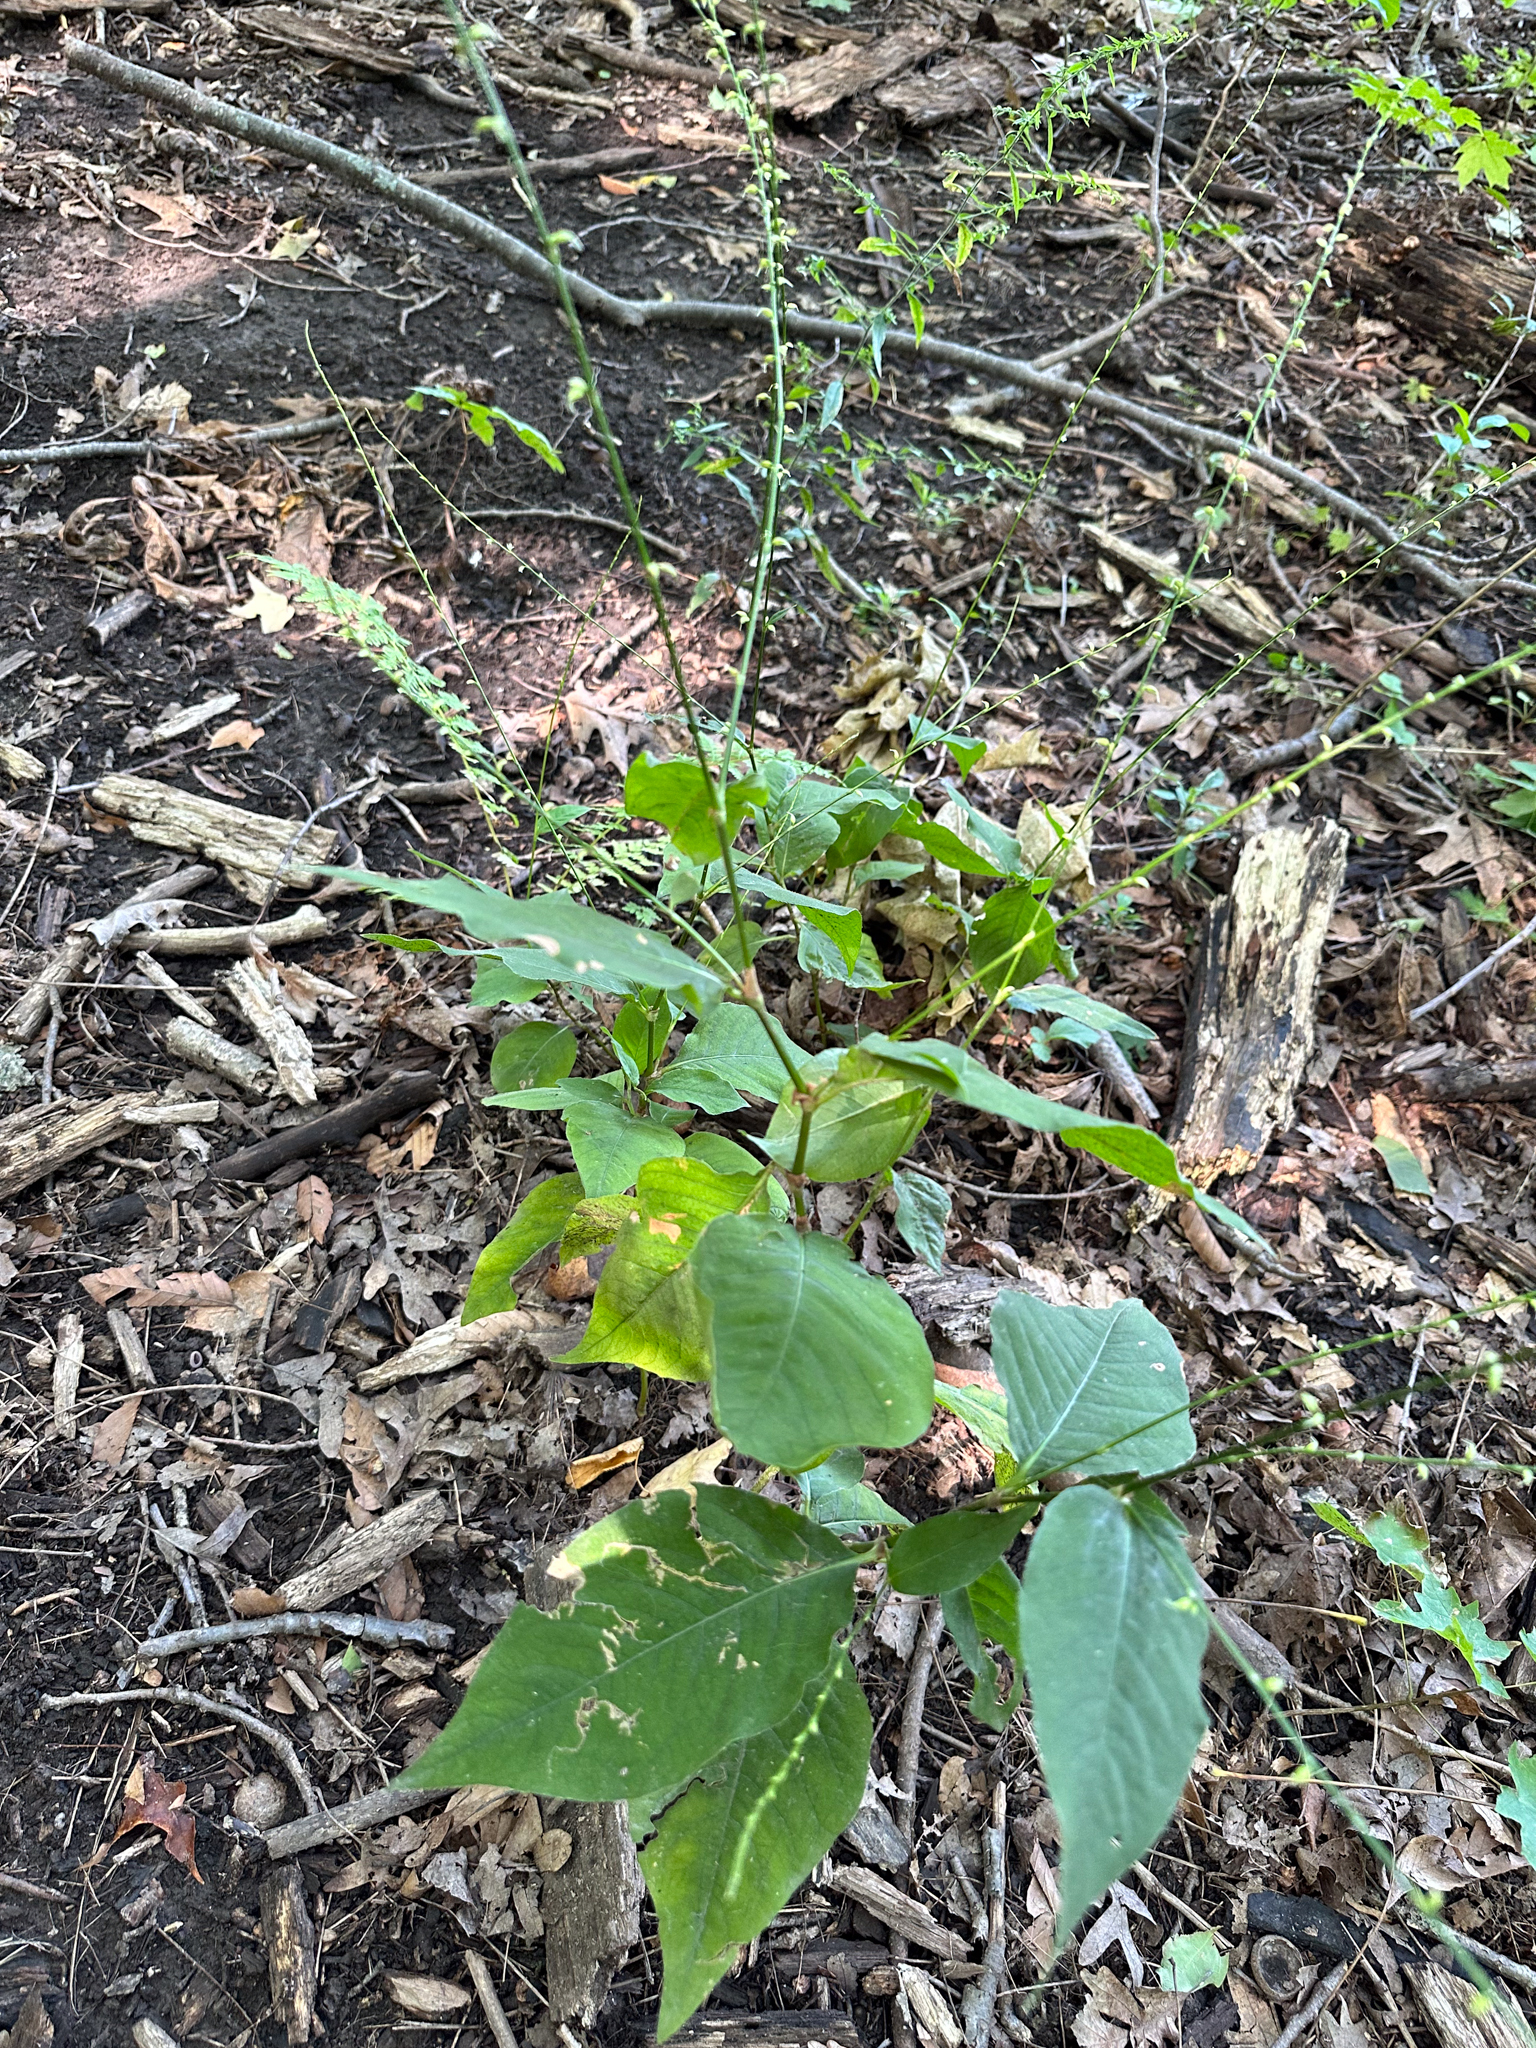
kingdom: Plantae
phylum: Tracheophyta
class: Magnoliopsida
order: Caryophyllales
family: Polygonaceae
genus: Persicaria
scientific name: Persicaria virginiana
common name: Jumpseed
